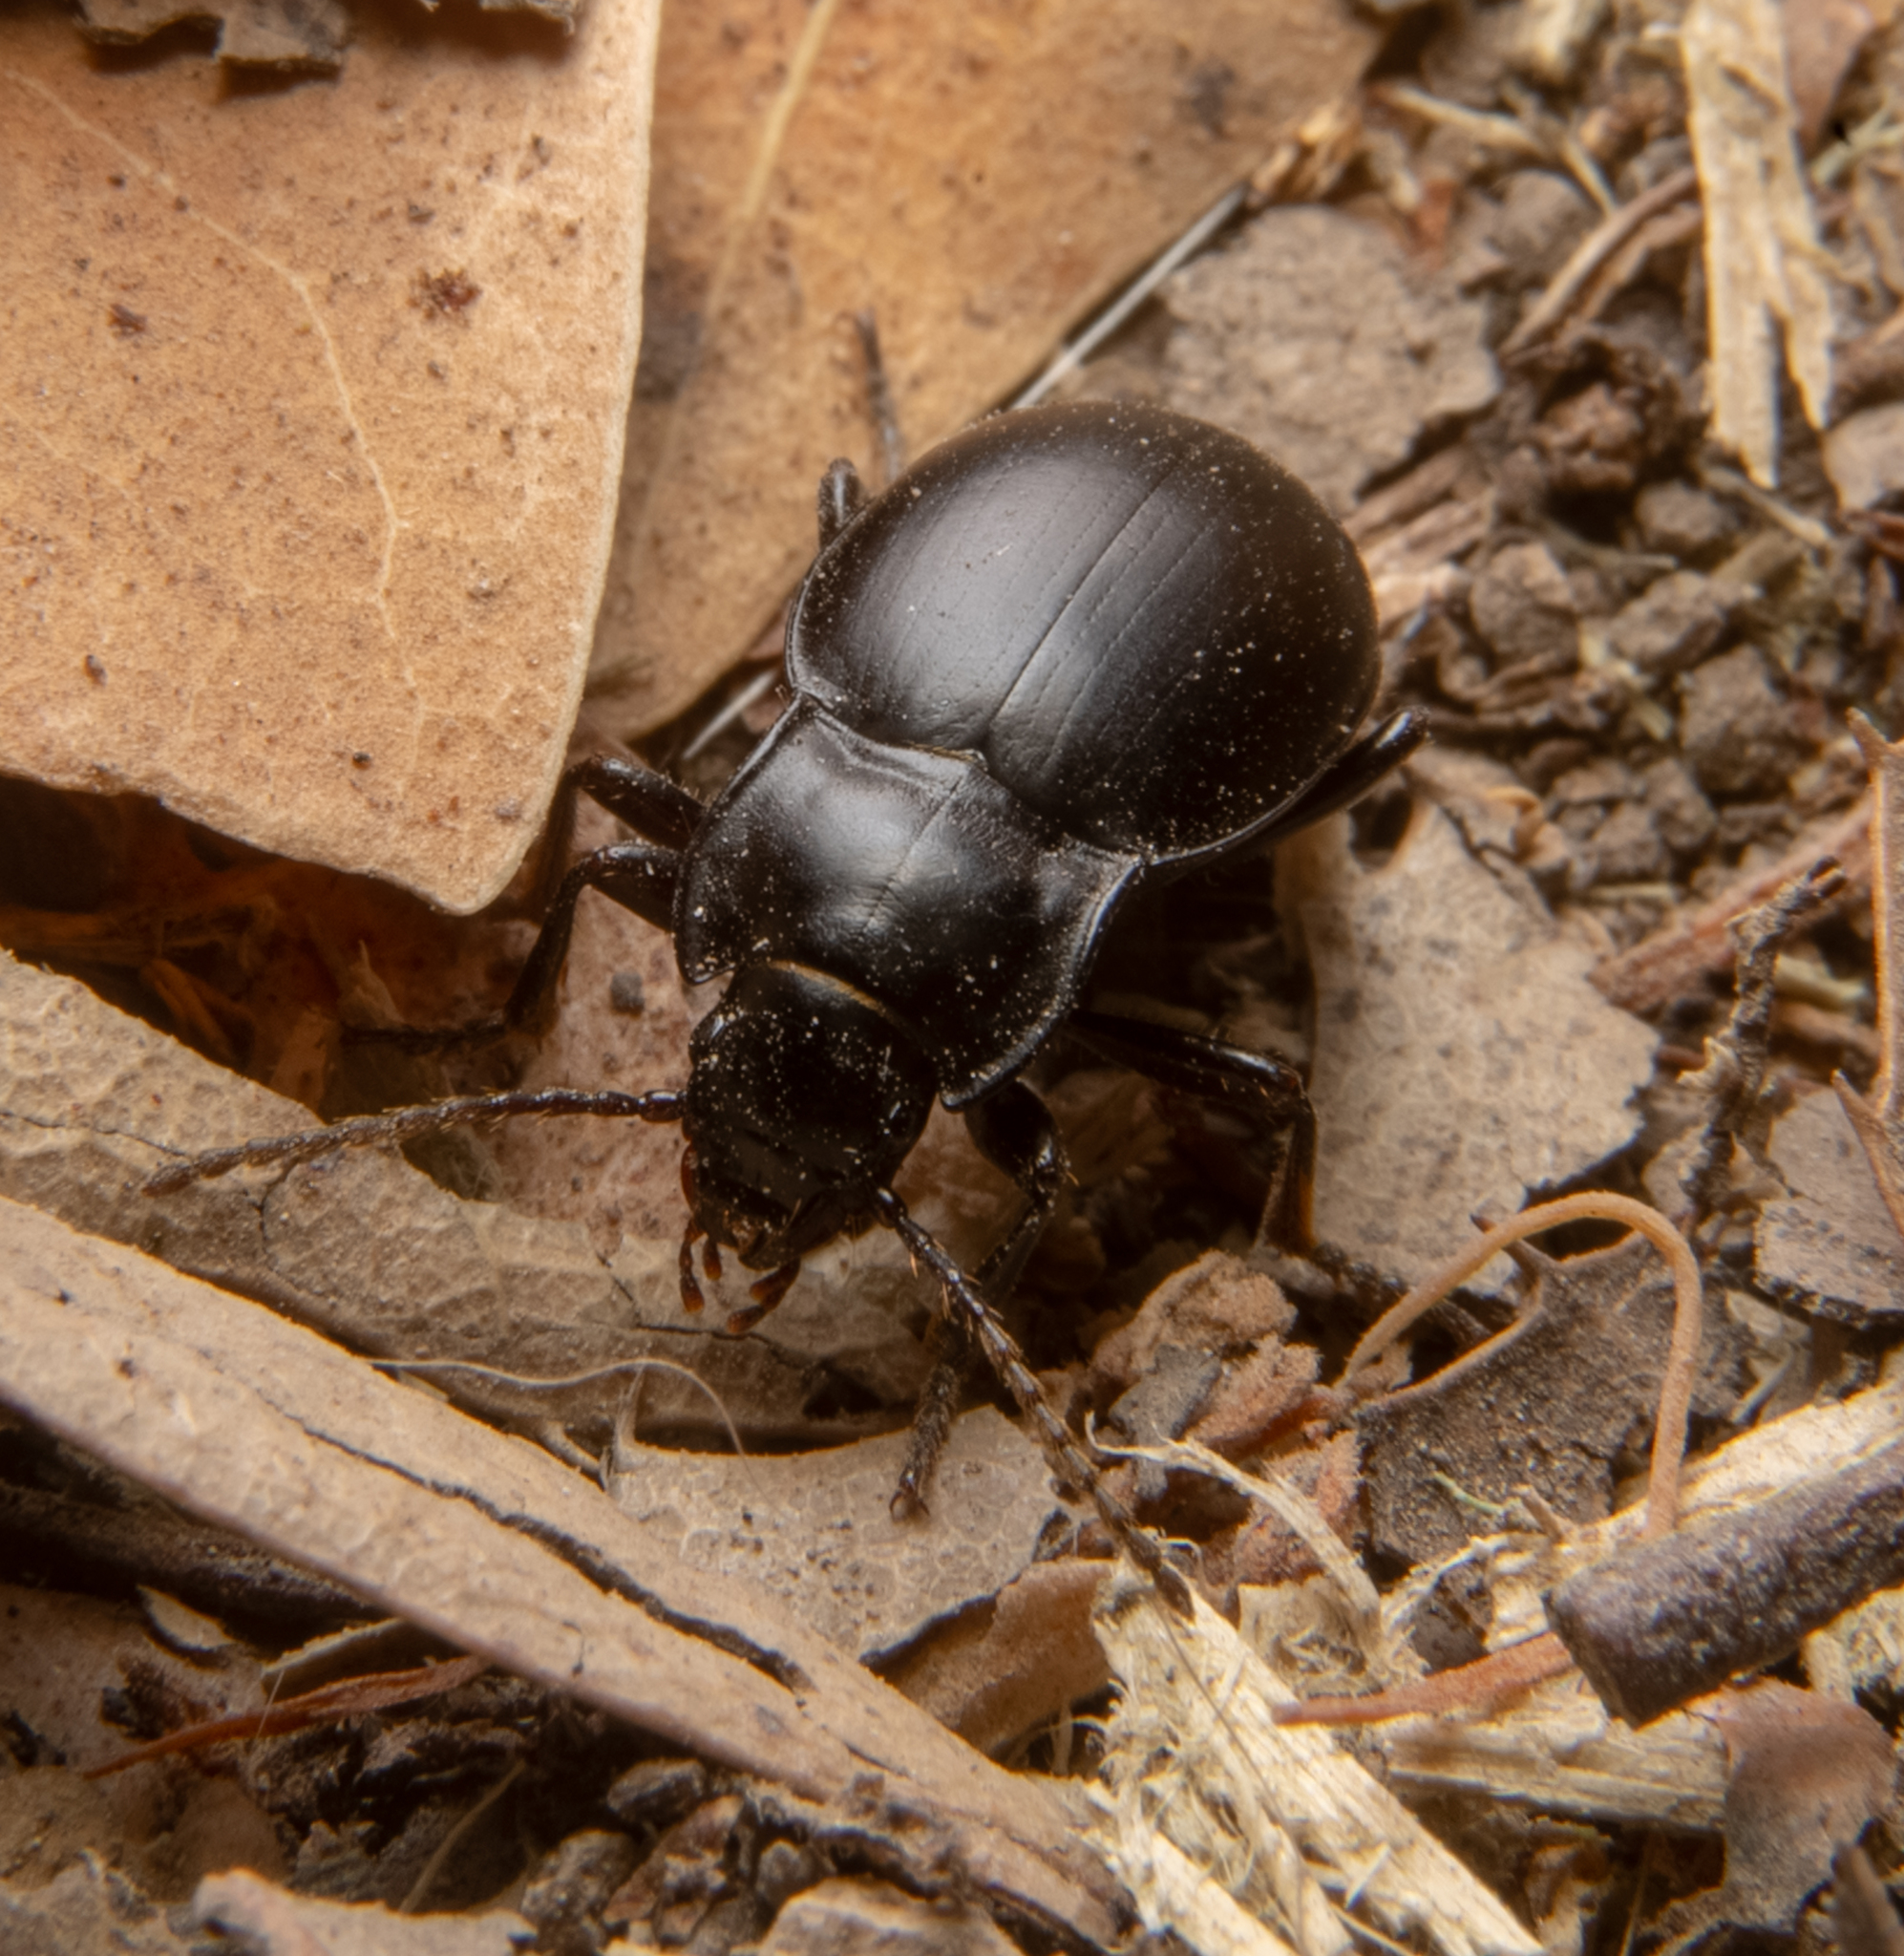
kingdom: Animalia
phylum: Arthropoda
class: Insecta
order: Coleoptera
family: Carabidae
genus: Metrius
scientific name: Metrius contractus
